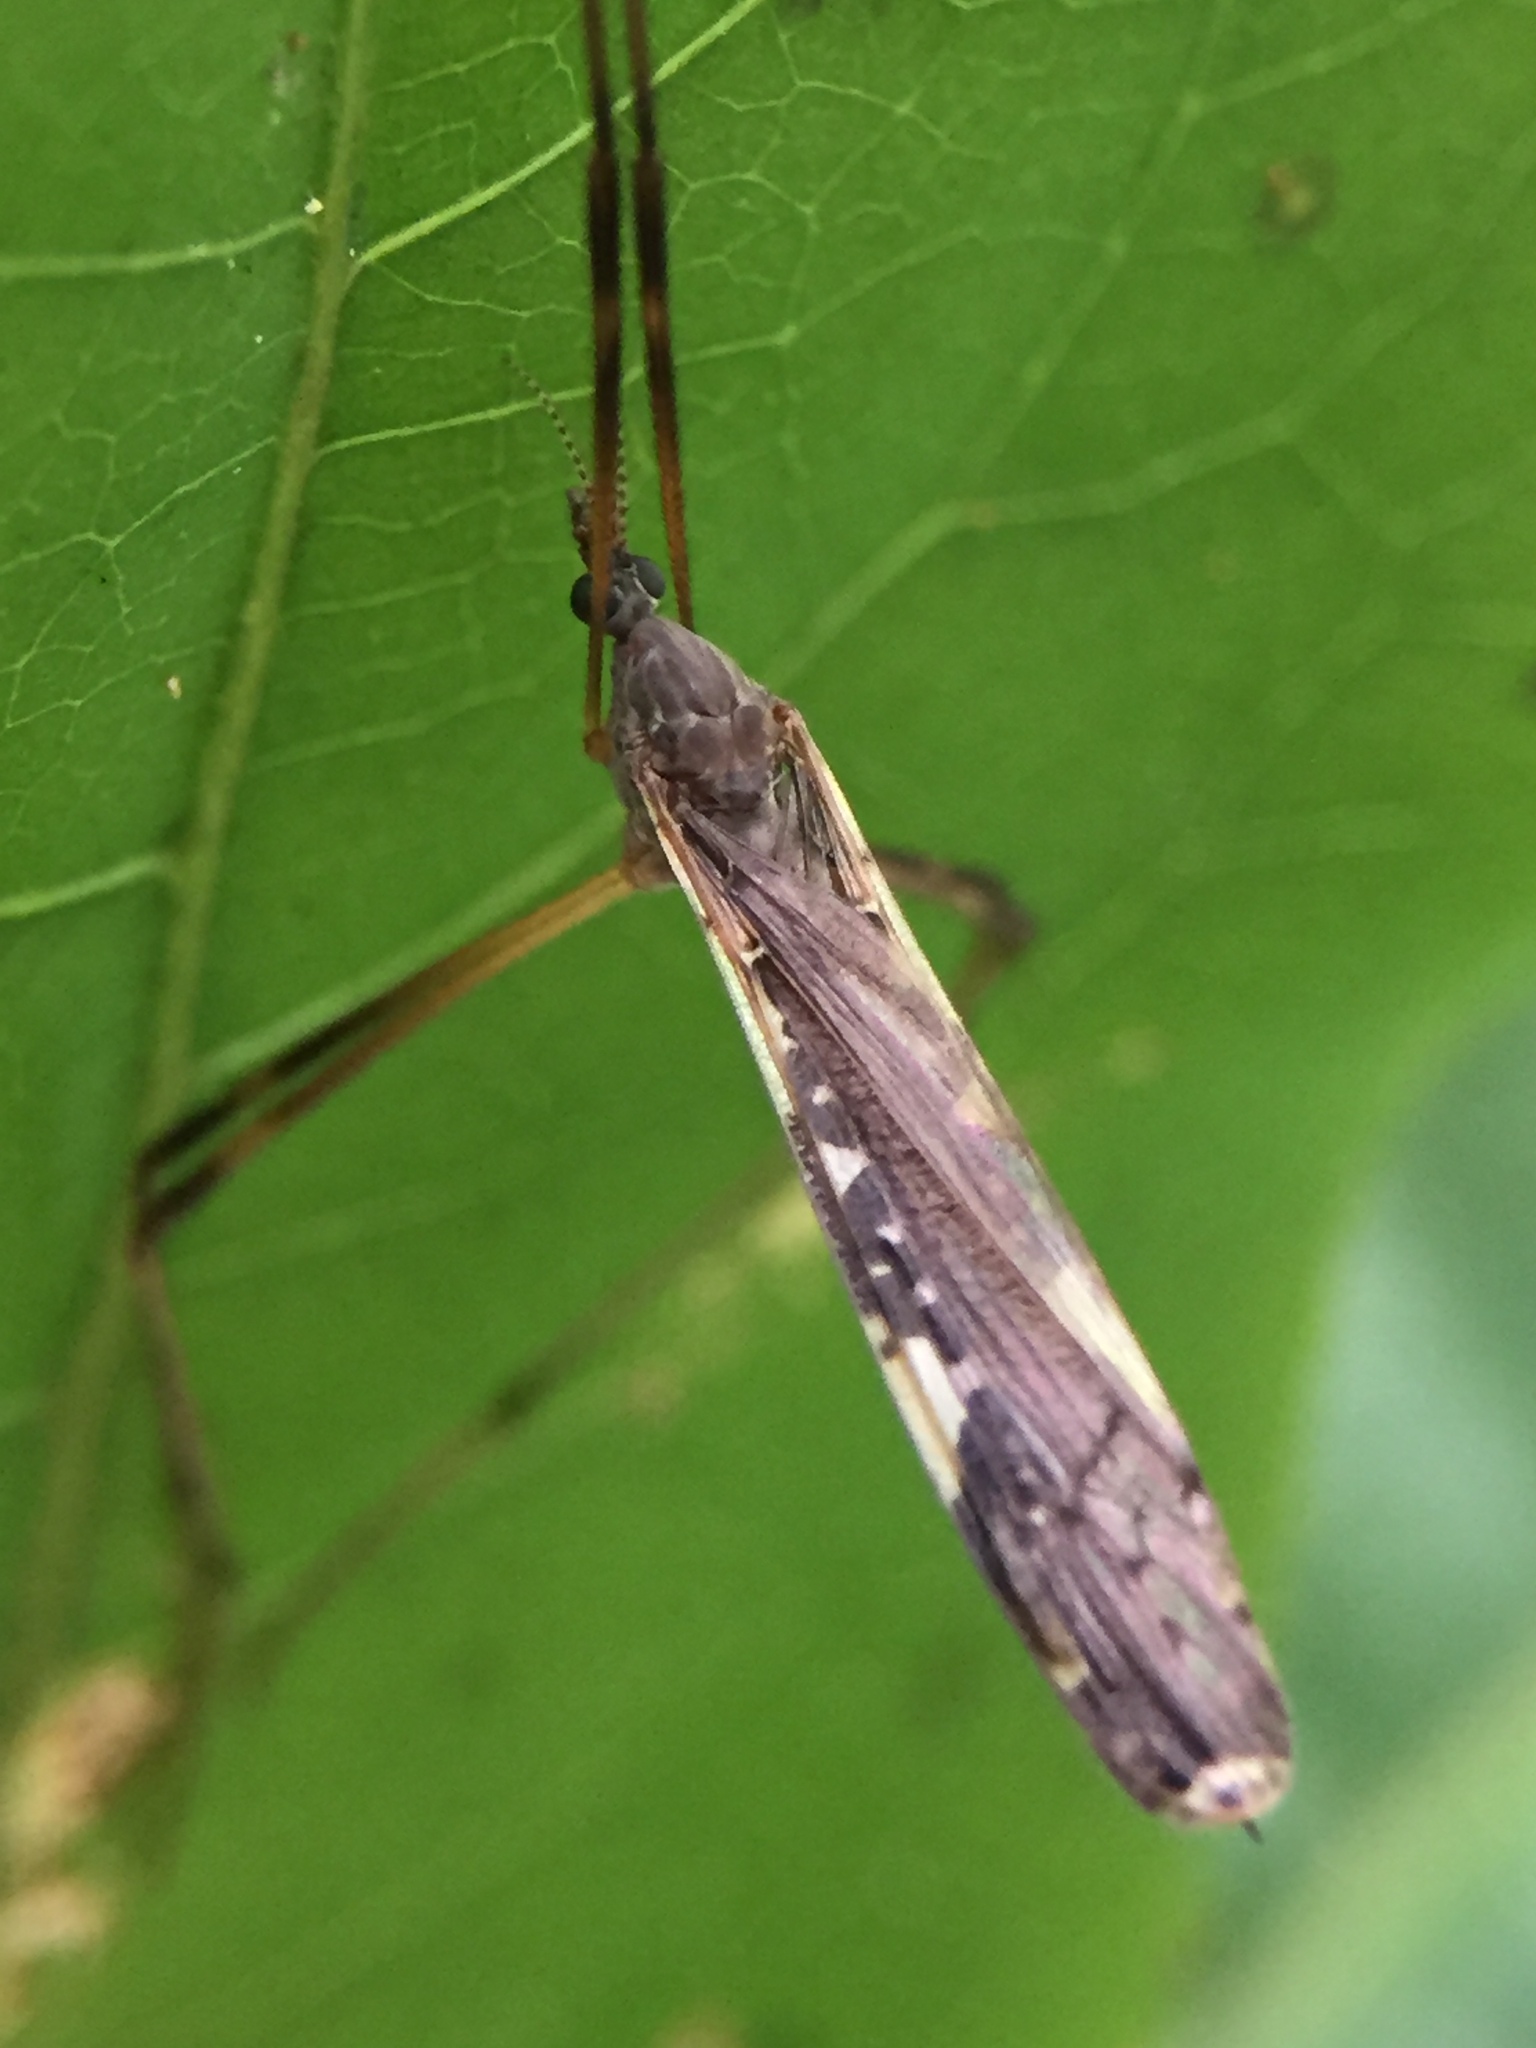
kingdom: Animalia
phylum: Arthropoda
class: Insecta
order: Diptera
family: Limoniidae
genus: Paralimnophila
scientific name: Paralimnophila skusei
